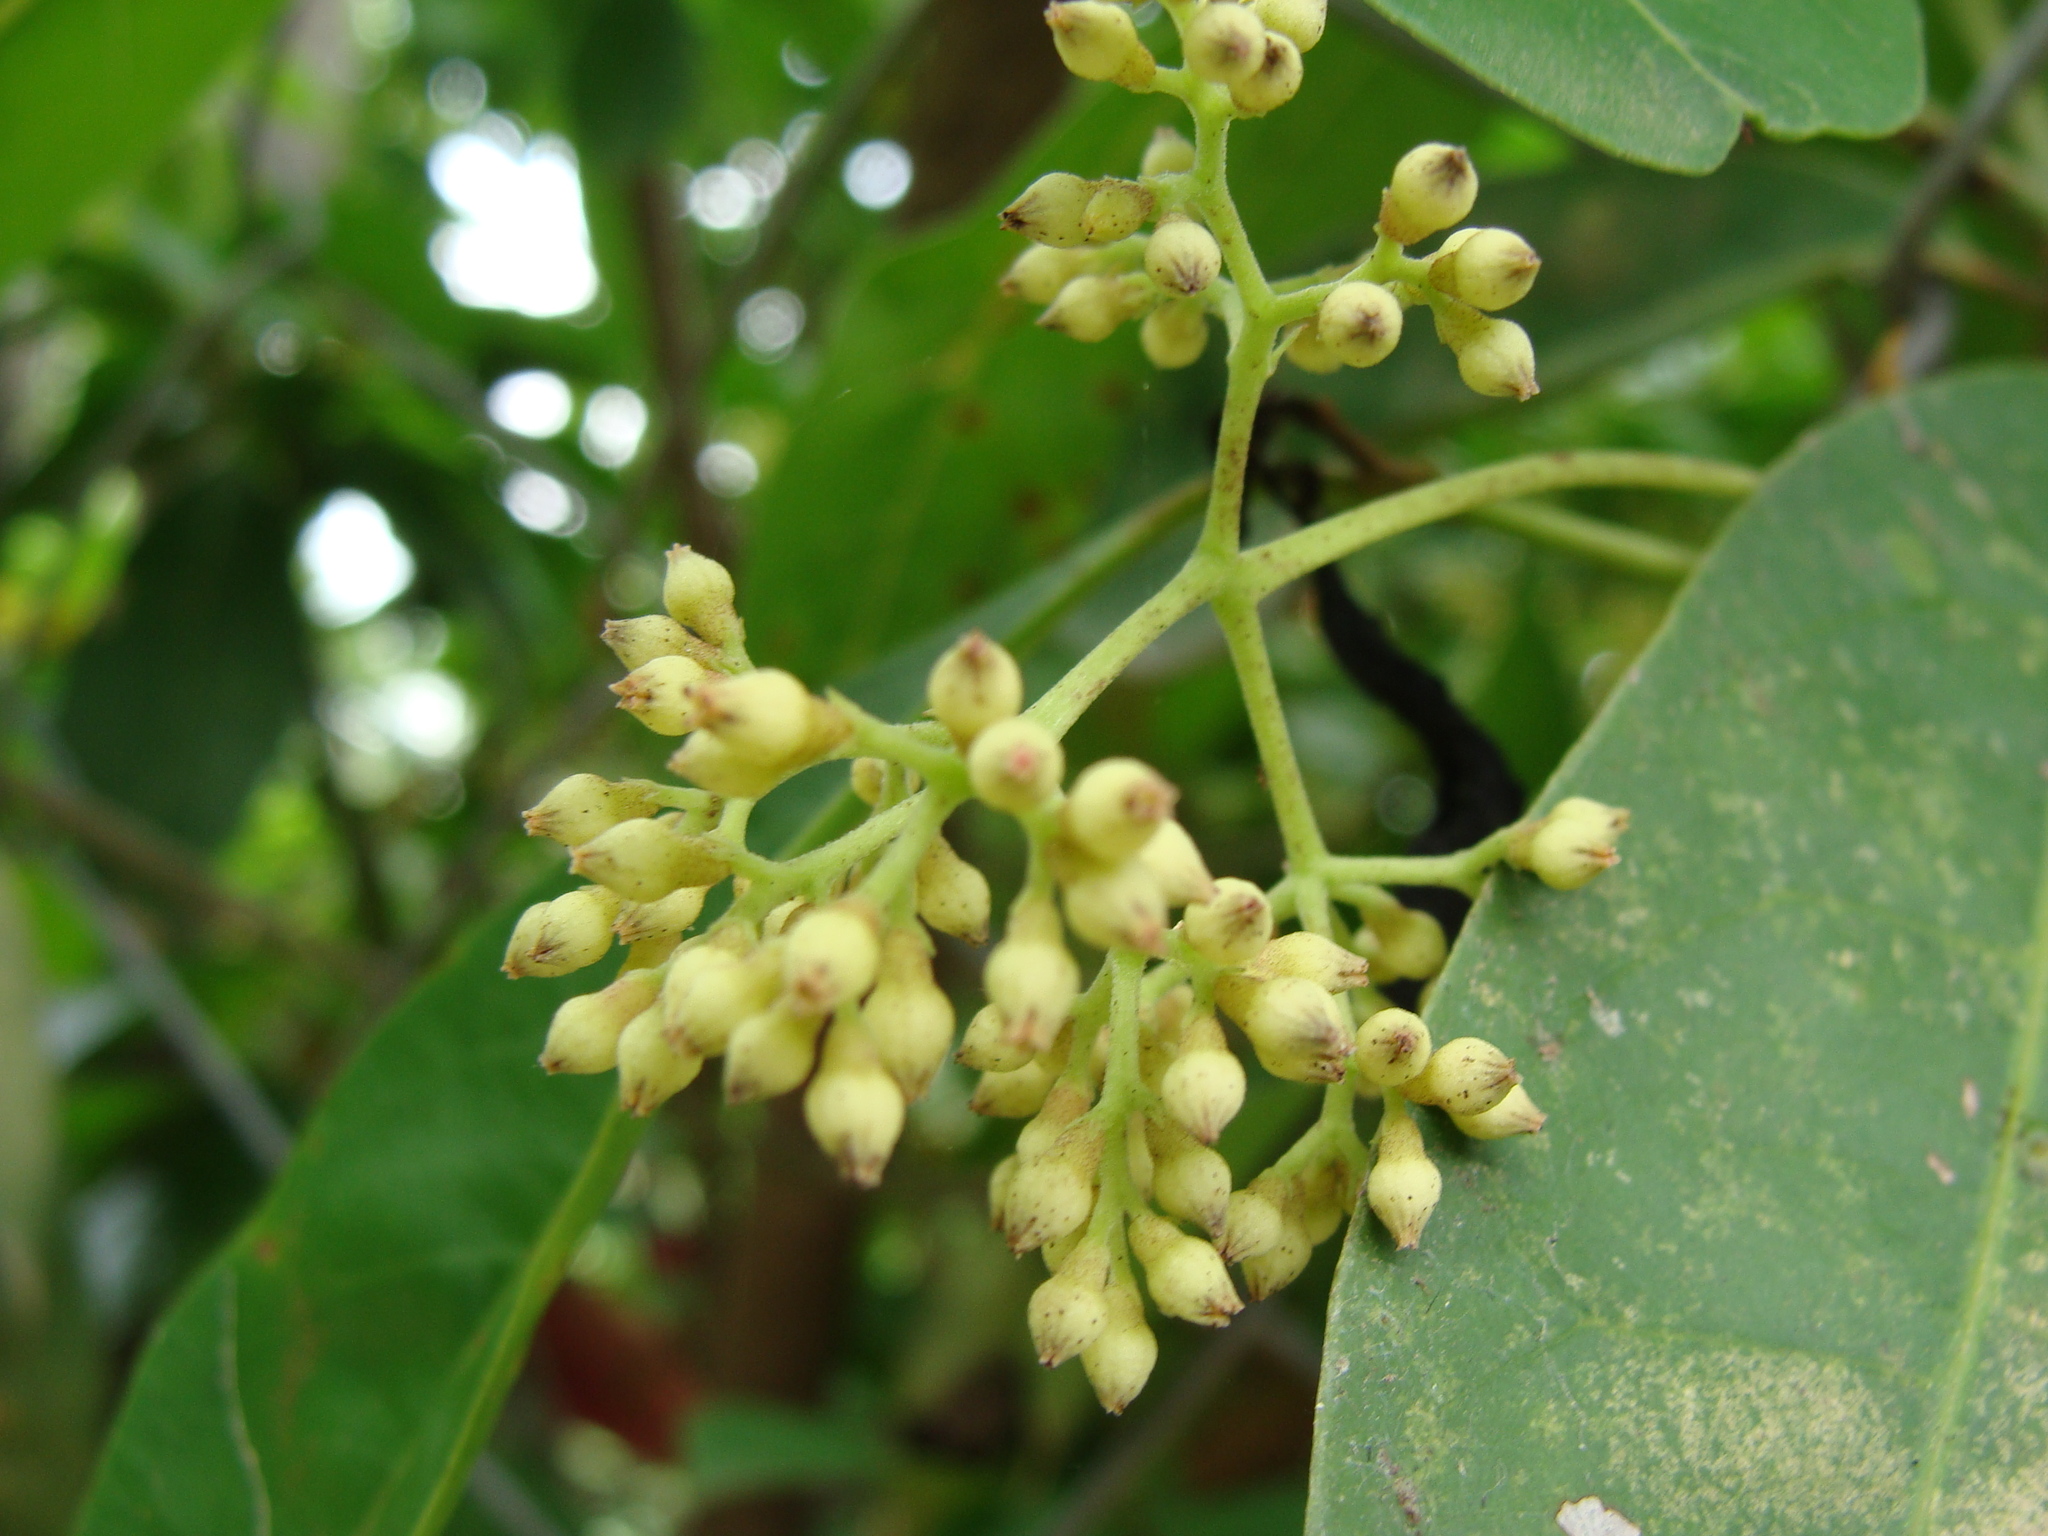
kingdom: Plantae
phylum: Tracheophyta
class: Magnoliopsida
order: Caryophyllales
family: Nyctaginaceae
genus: Neea
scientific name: Neea turbinata
